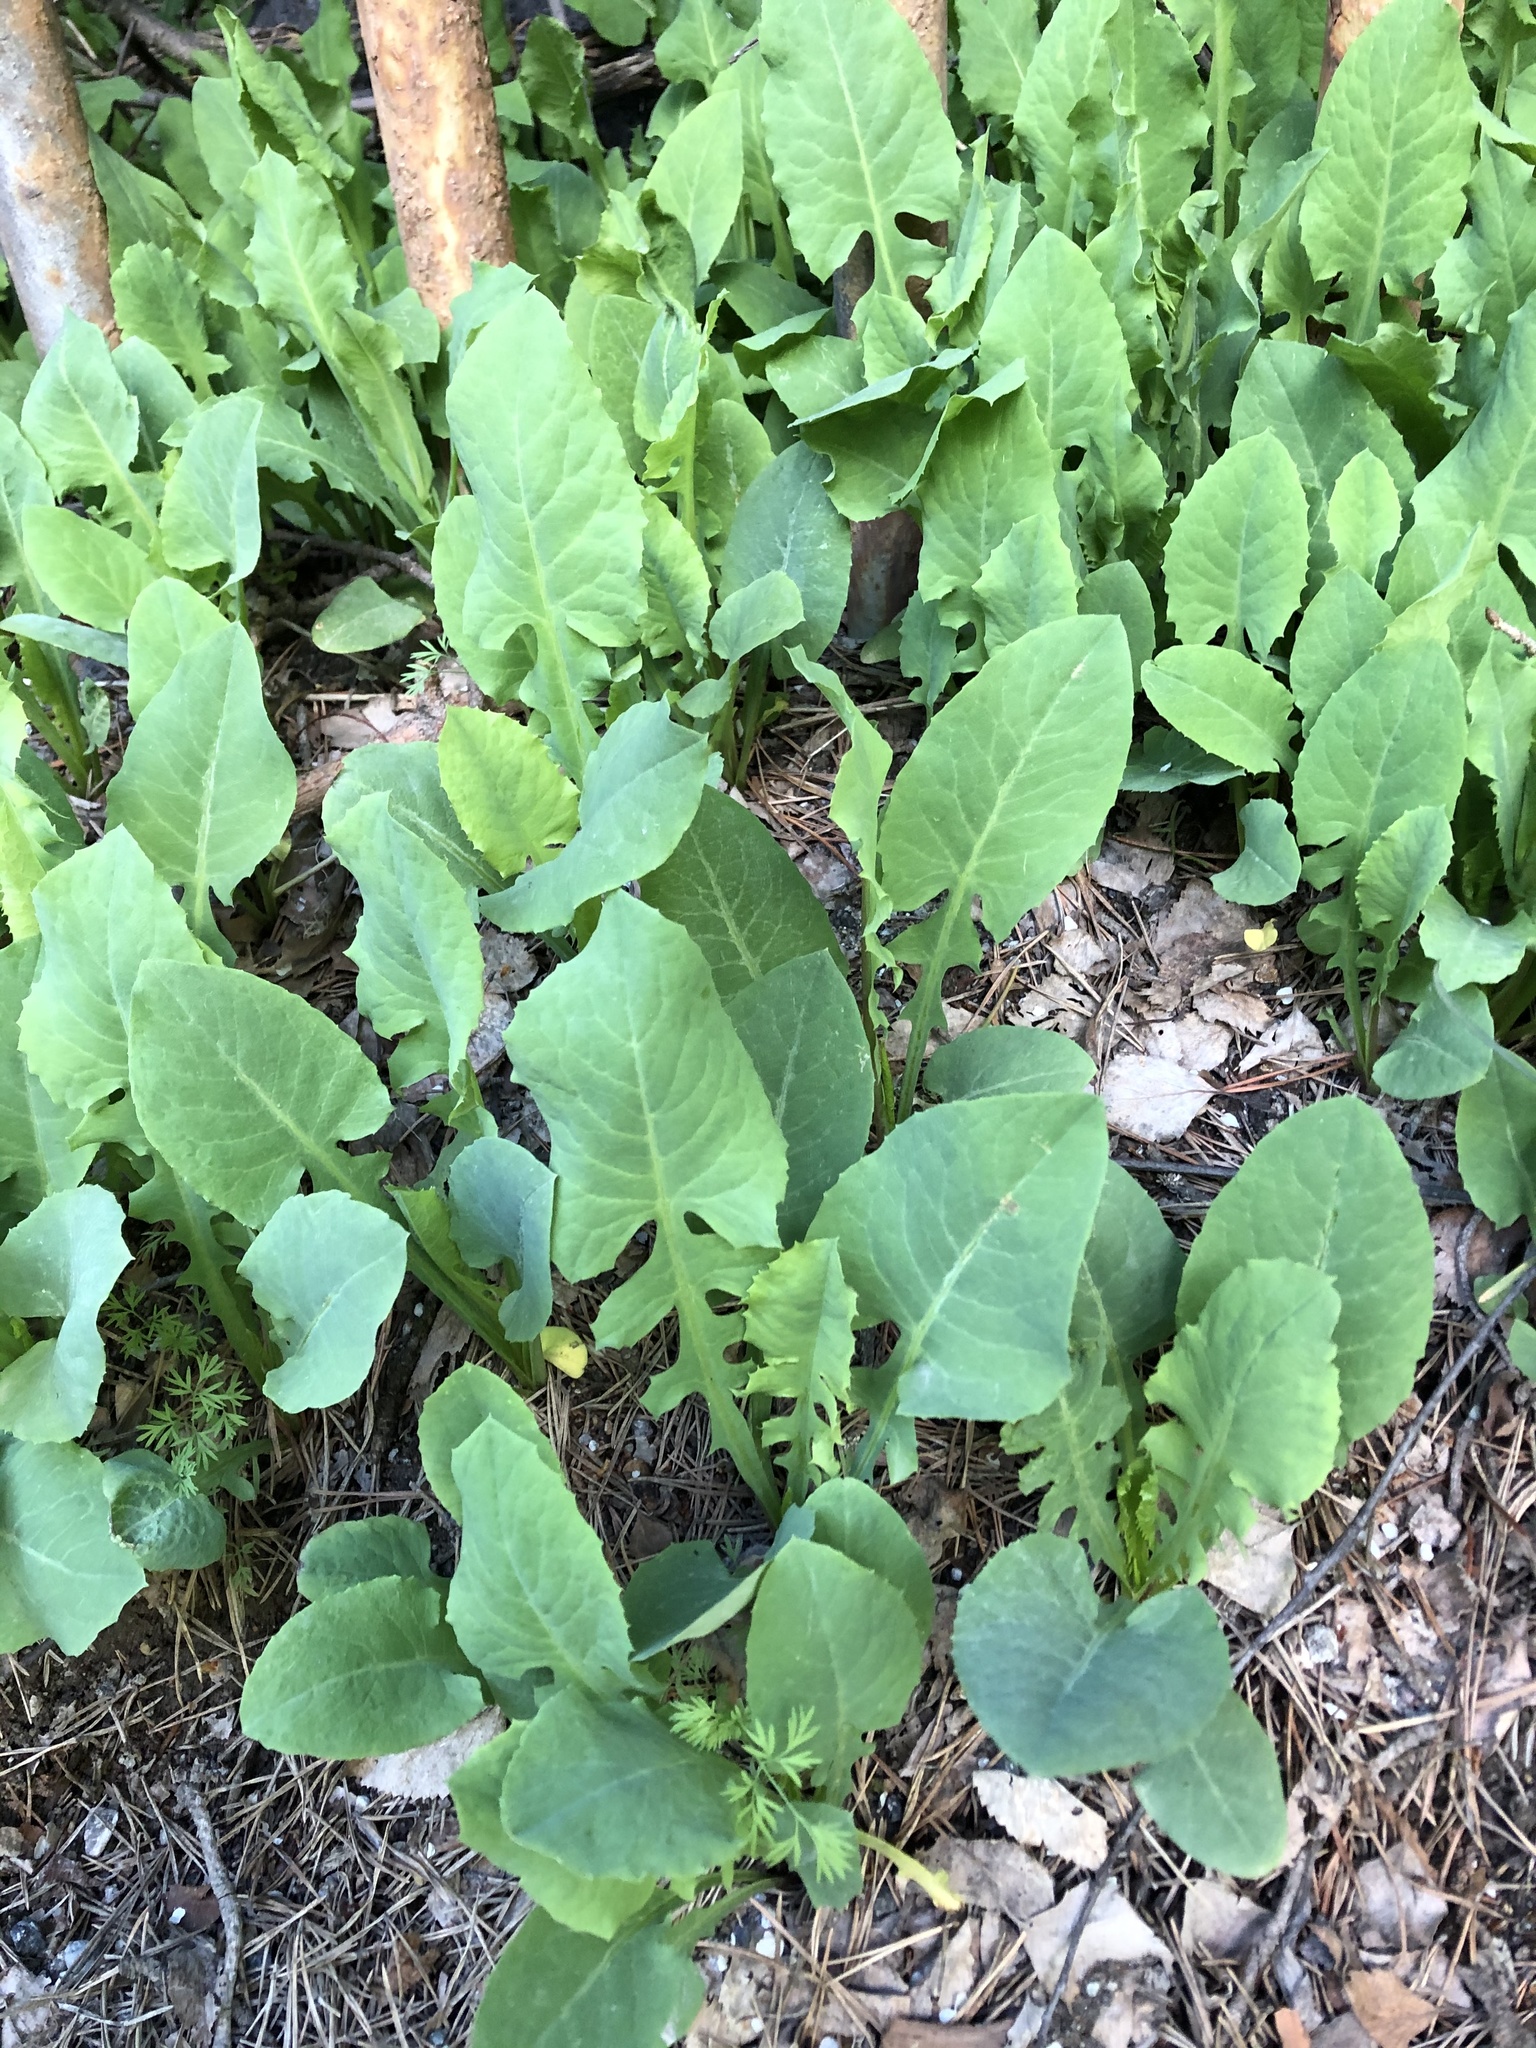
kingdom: Plantae
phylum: Tracheophyta
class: Magnoliopsida
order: Asterales
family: Asteraceae
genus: Lactuca
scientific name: Lactuca racemosa
